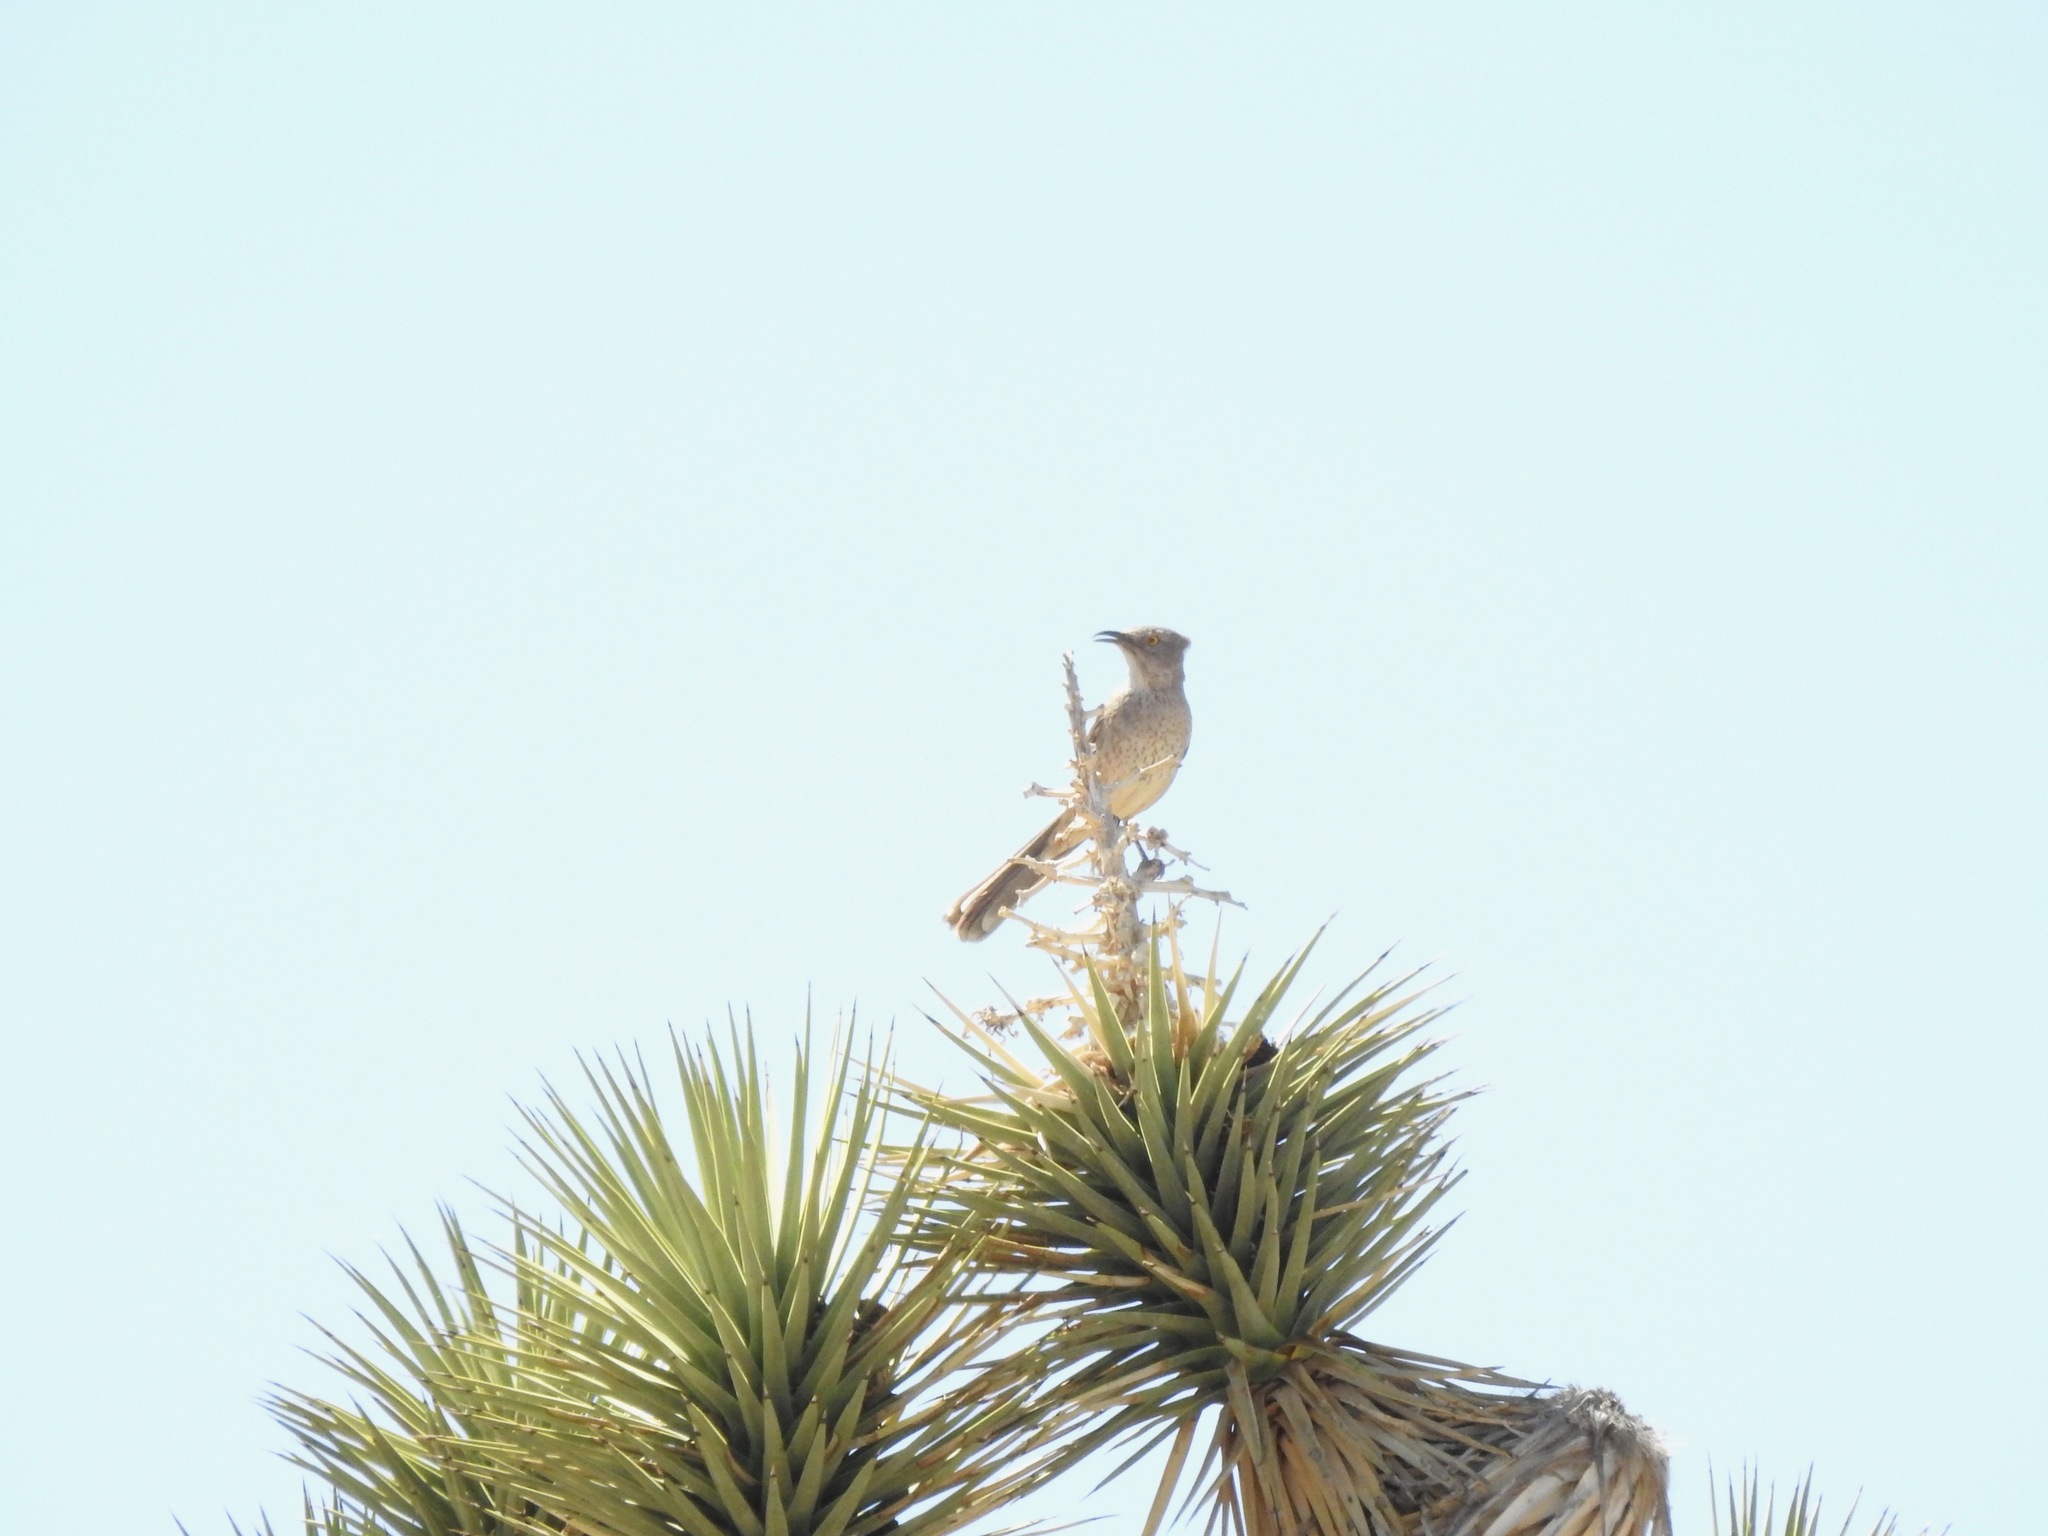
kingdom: Animalia
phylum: Chordata
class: Aves
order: Passeriformes
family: Mimidae
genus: Toxostoma
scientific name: Toxostoma bendirei
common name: Bendire's thrasher
